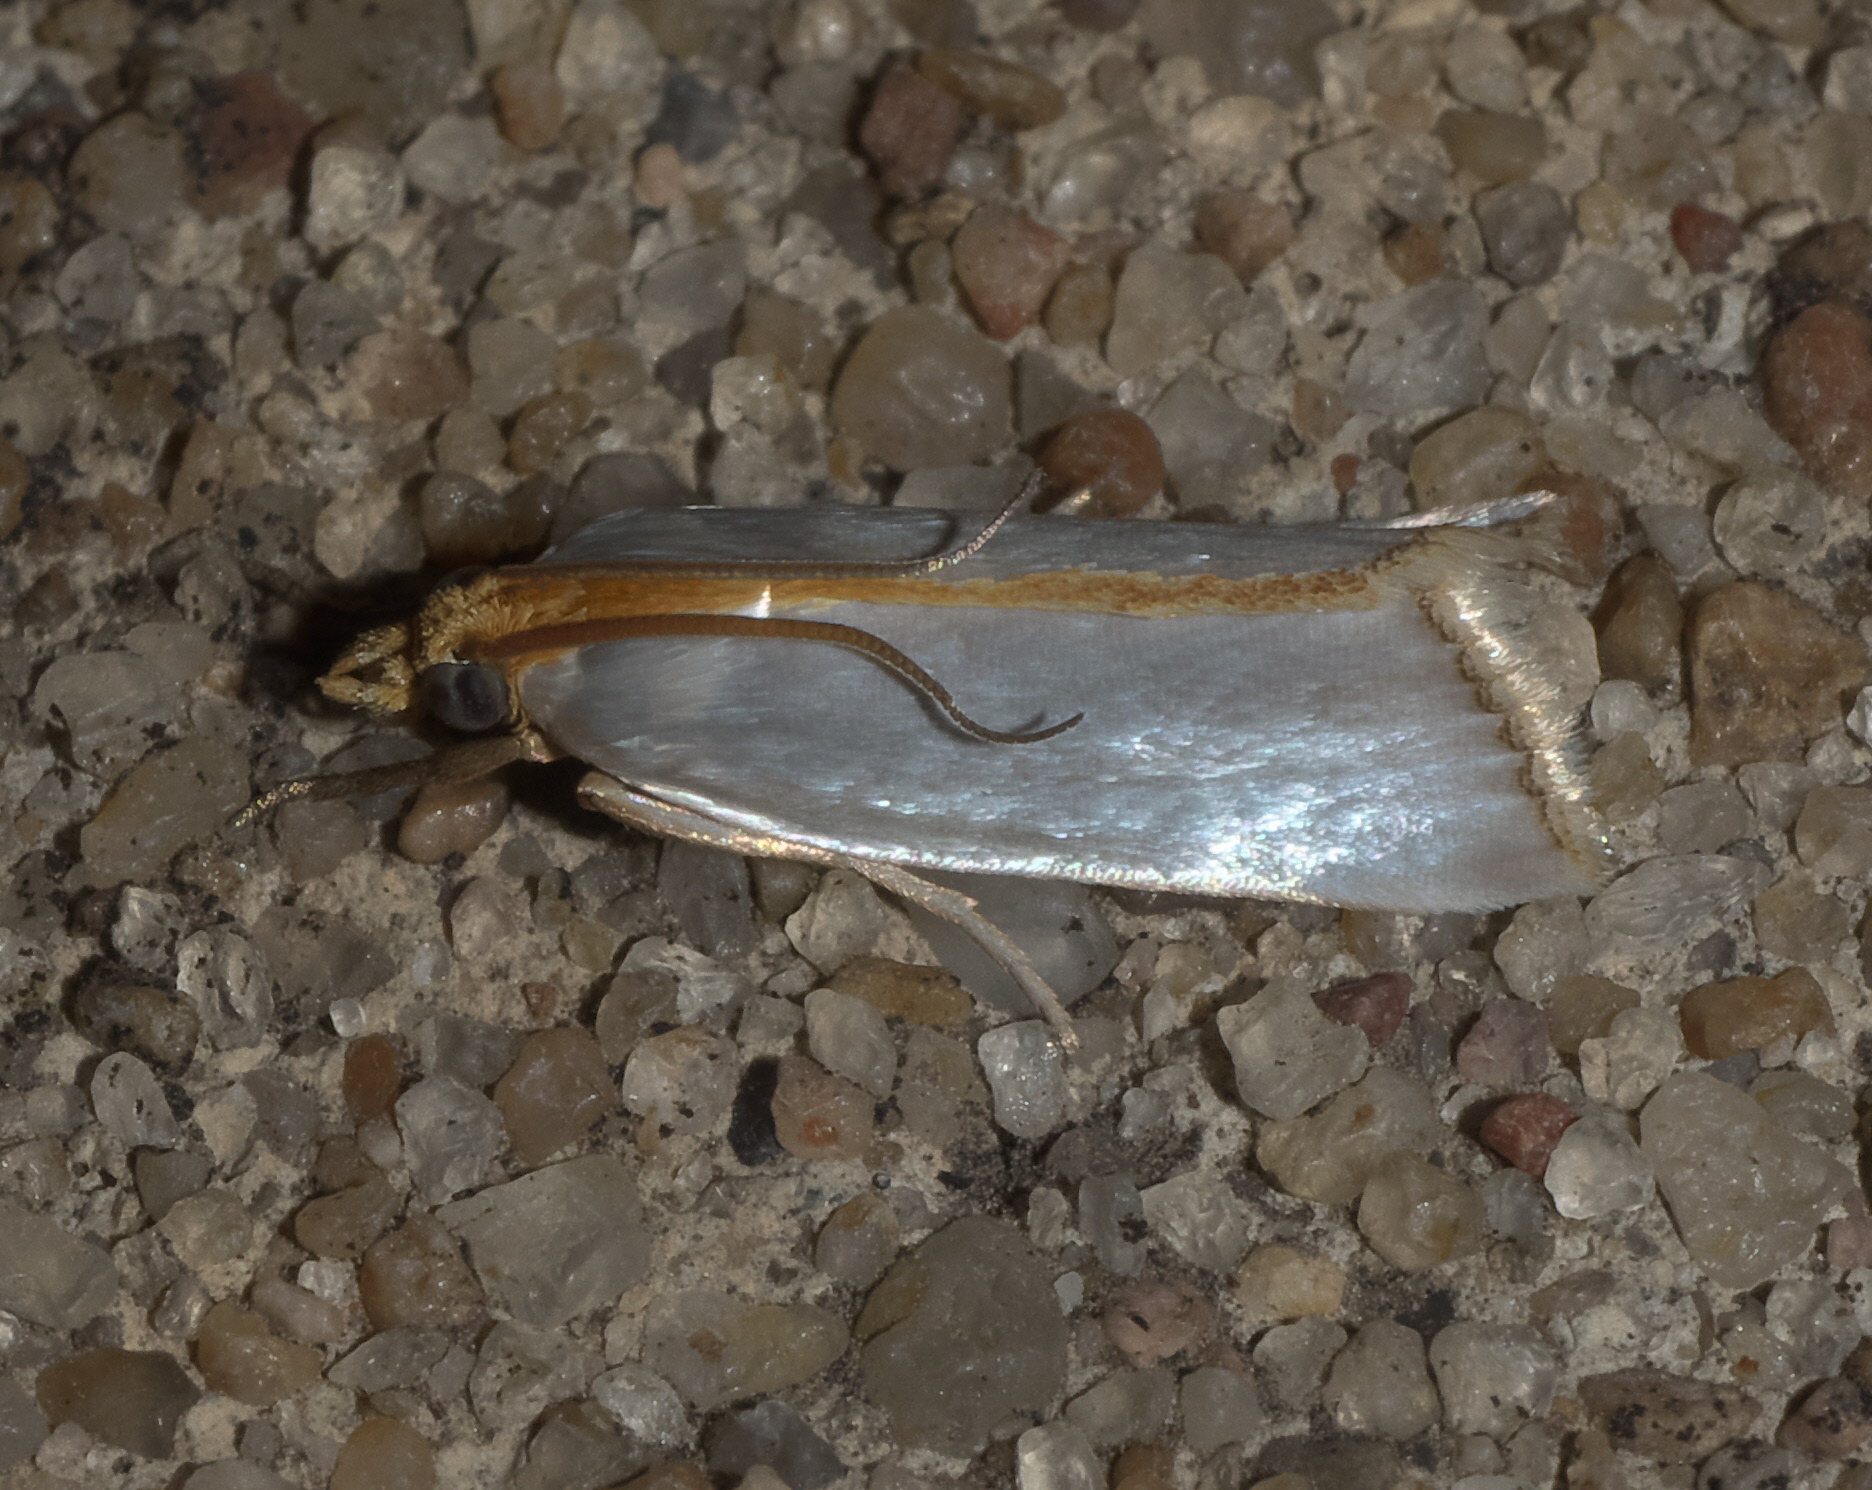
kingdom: Animalia
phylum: Arthropoda
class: Insecta
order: Lepidoptera
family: Crambidae
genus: Argyria
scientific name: Argyria
